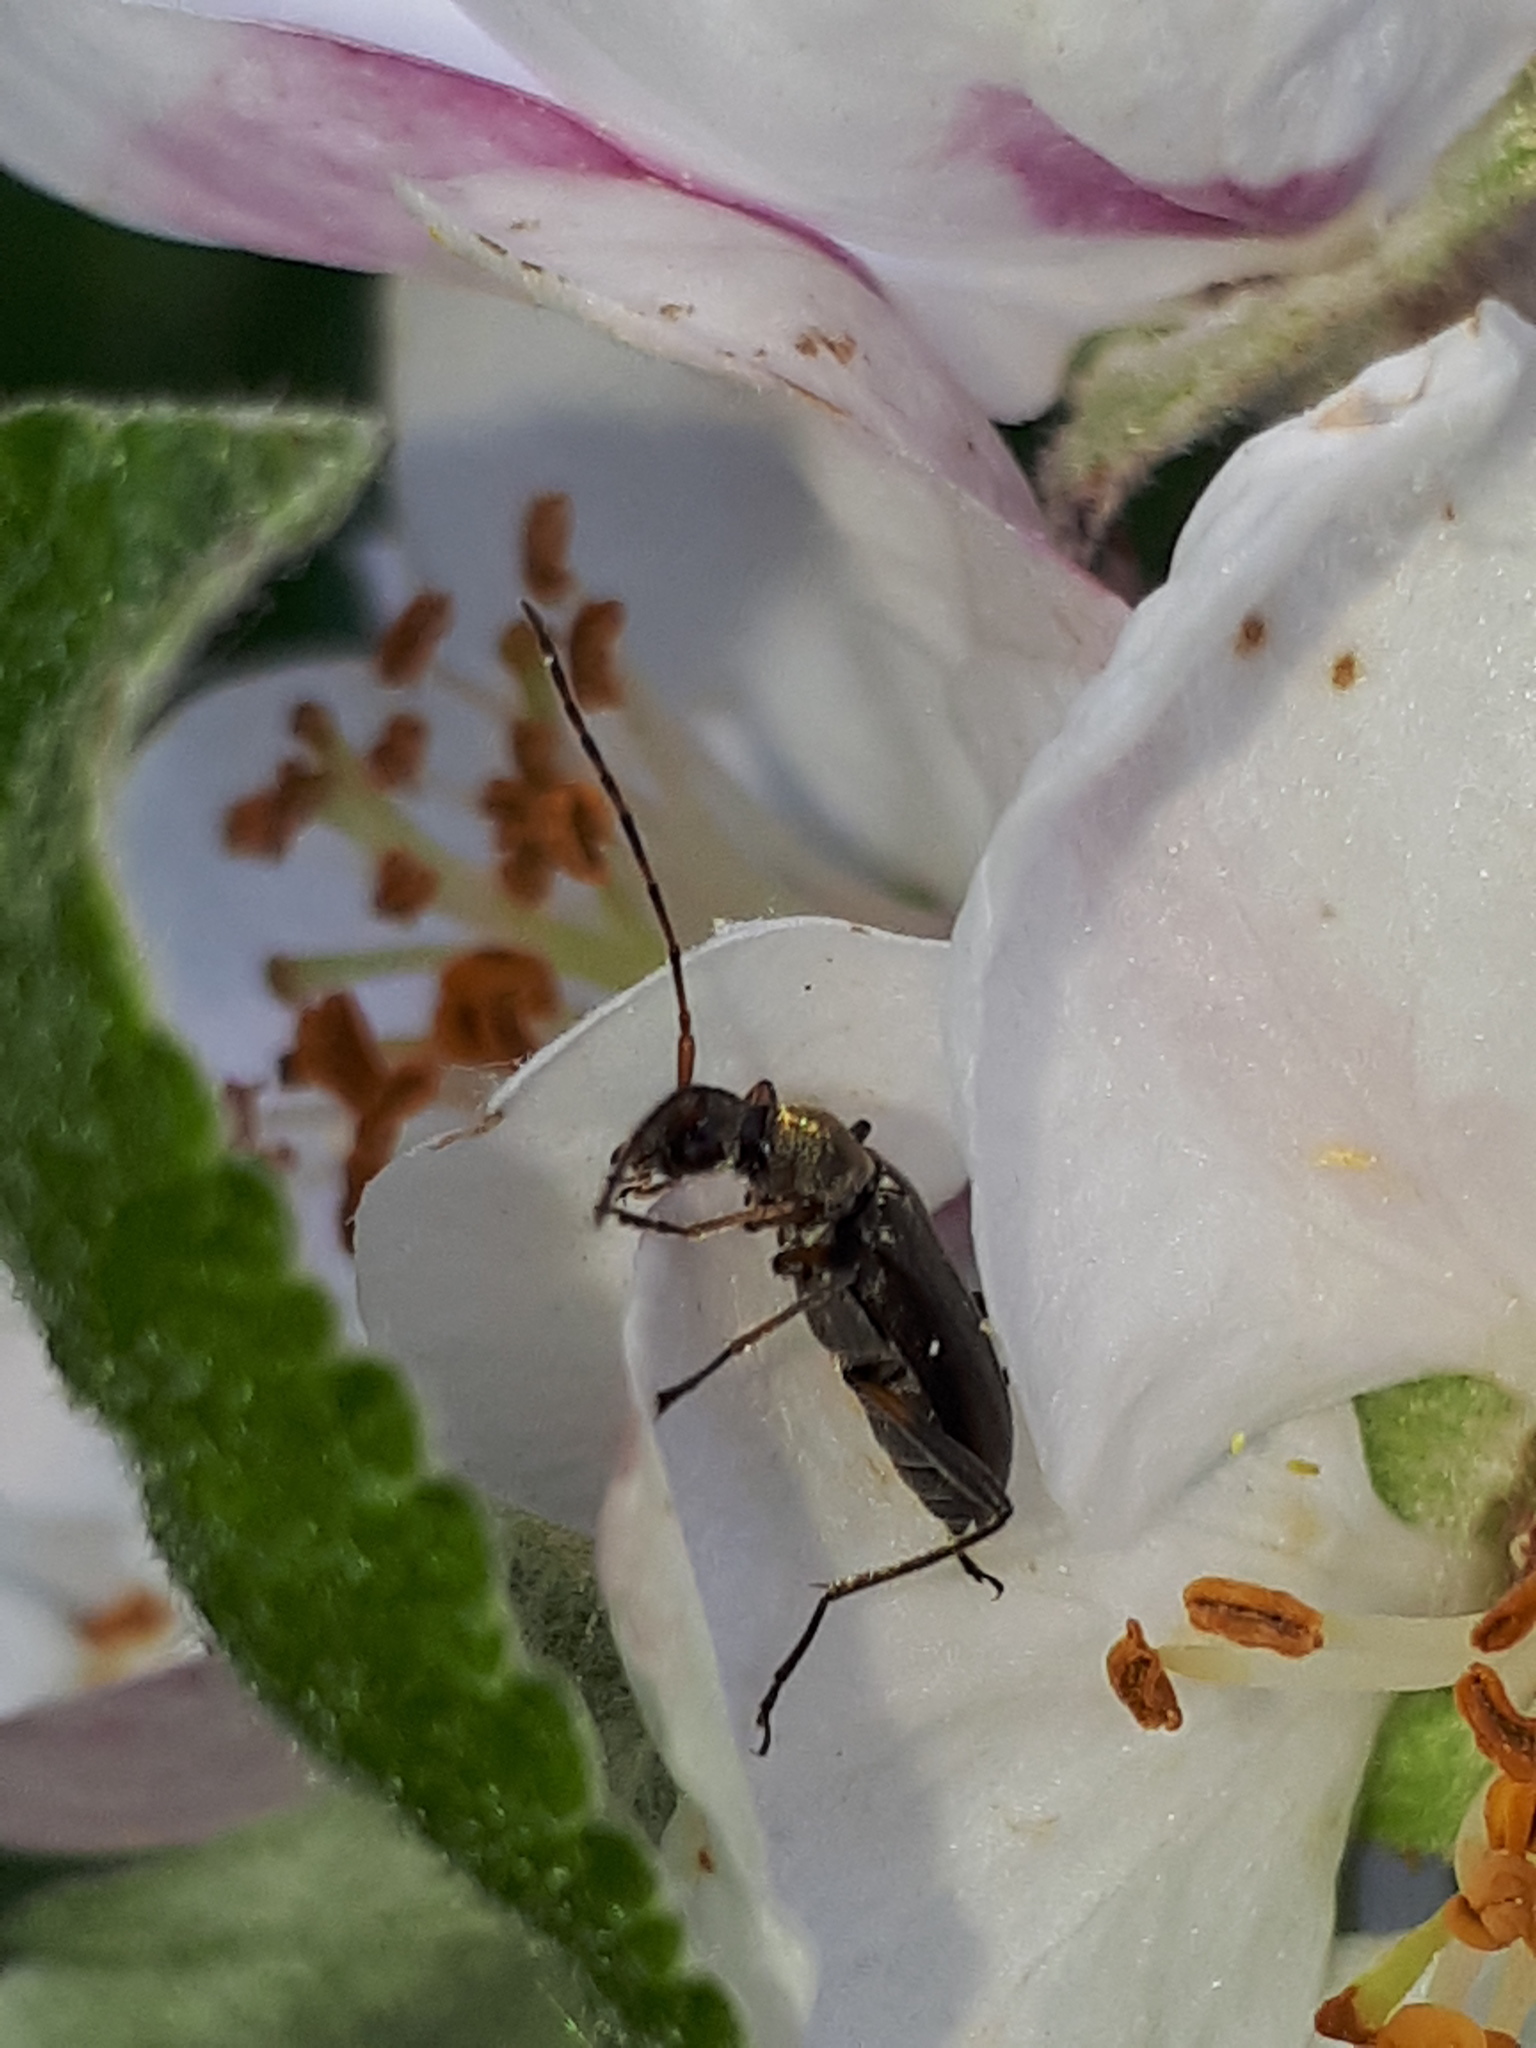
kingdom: Animalia
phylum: Arthropoda
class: Insecta
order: Coleoptera
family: Cerambycidae
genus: Grammoptera
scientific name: Grammoptera ruficornis
